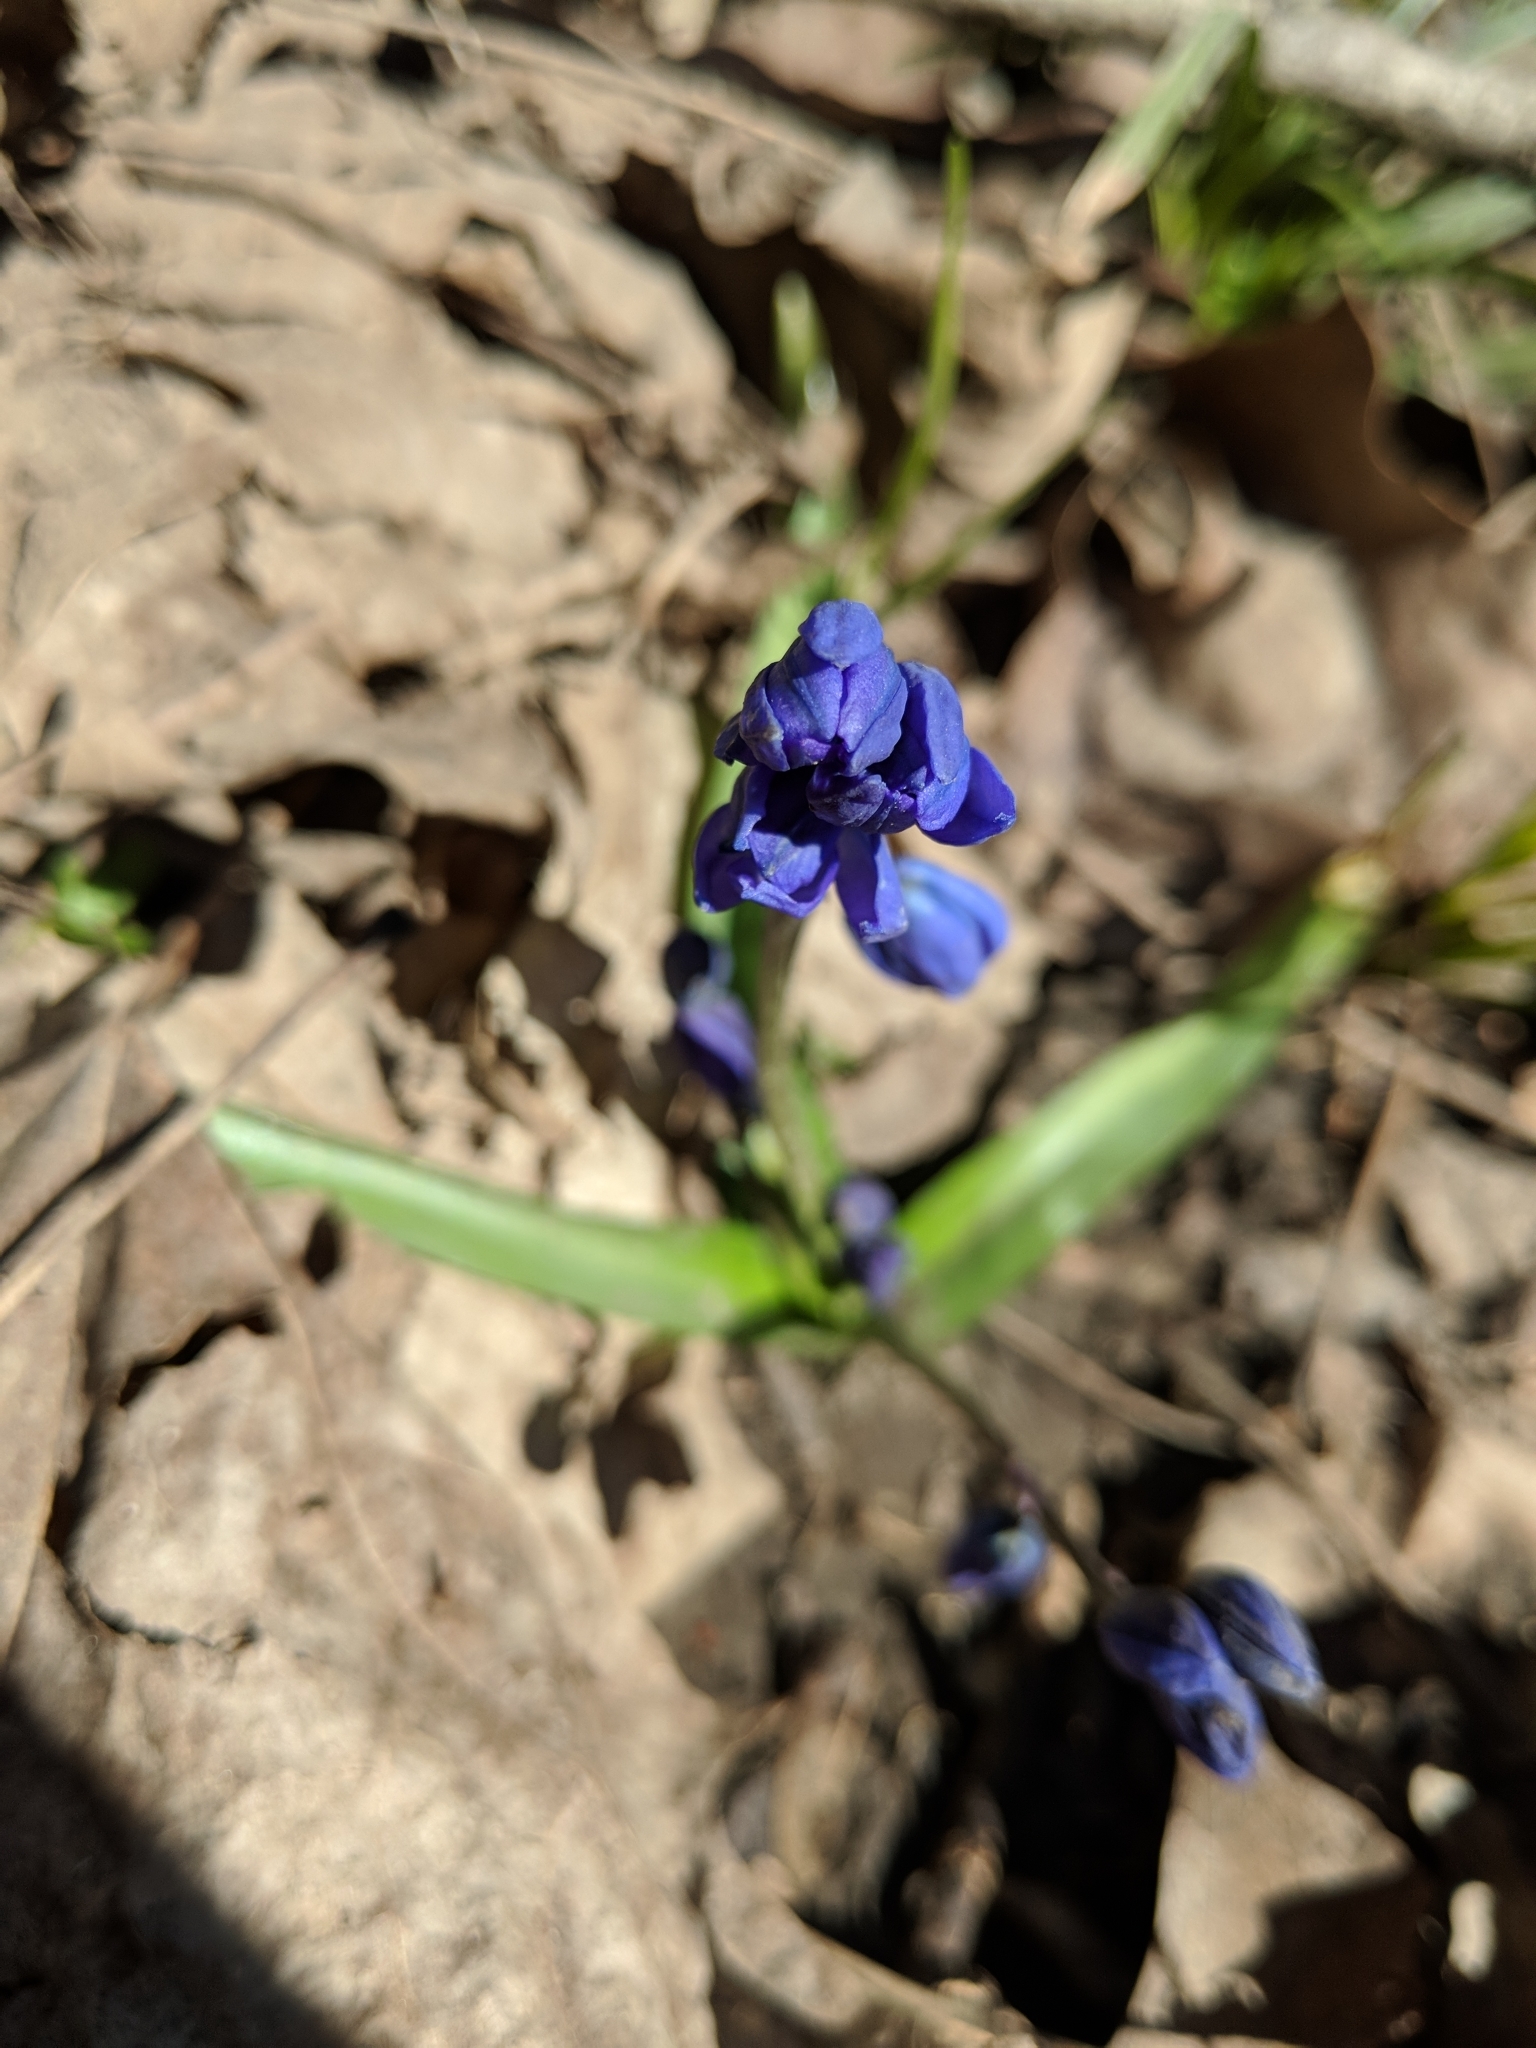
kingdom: Plantae
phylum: Tracheophyta
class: Liliopsida
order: Asparagales
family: Asparagaceae
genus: Scilla
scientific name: Scilla siberica
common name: Siberian squill
